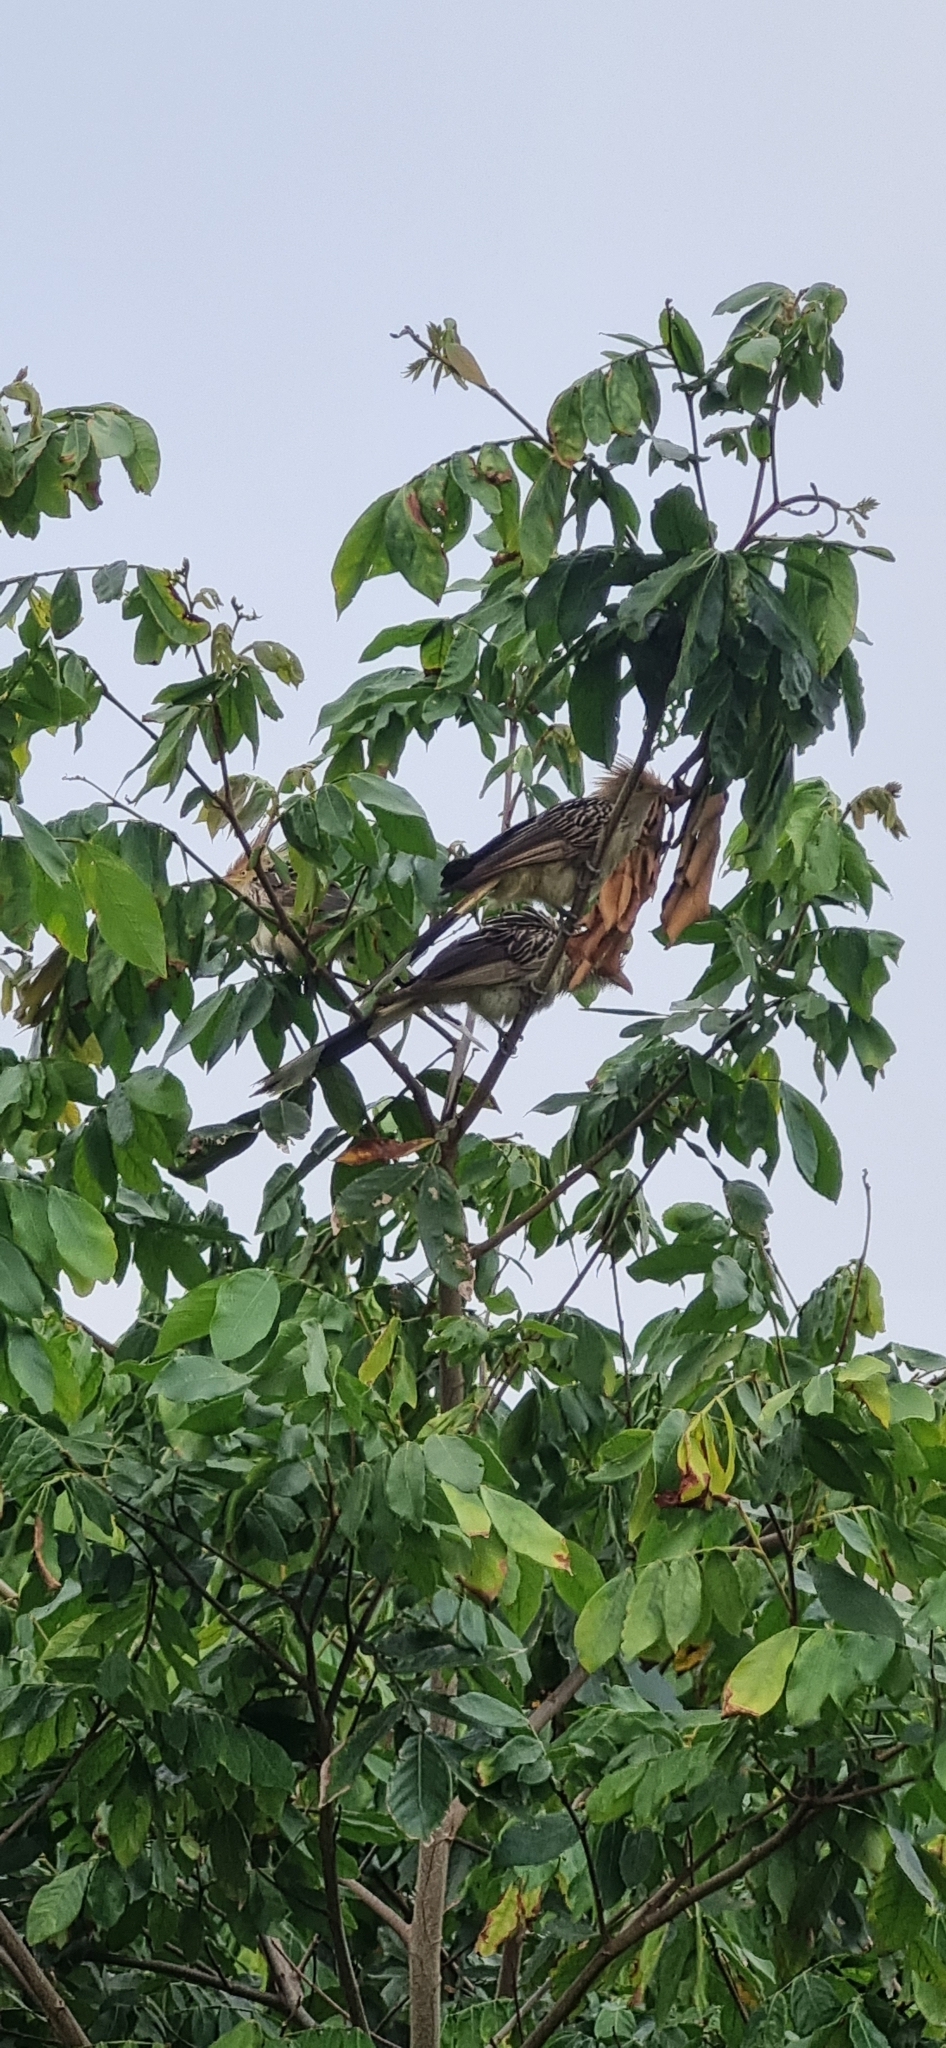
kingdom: Animalia
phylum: Chordata
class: Aves
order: Cuculiformes
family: Cuculidae
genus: Guira
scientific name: Guira guira
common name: Guira cuckoo
